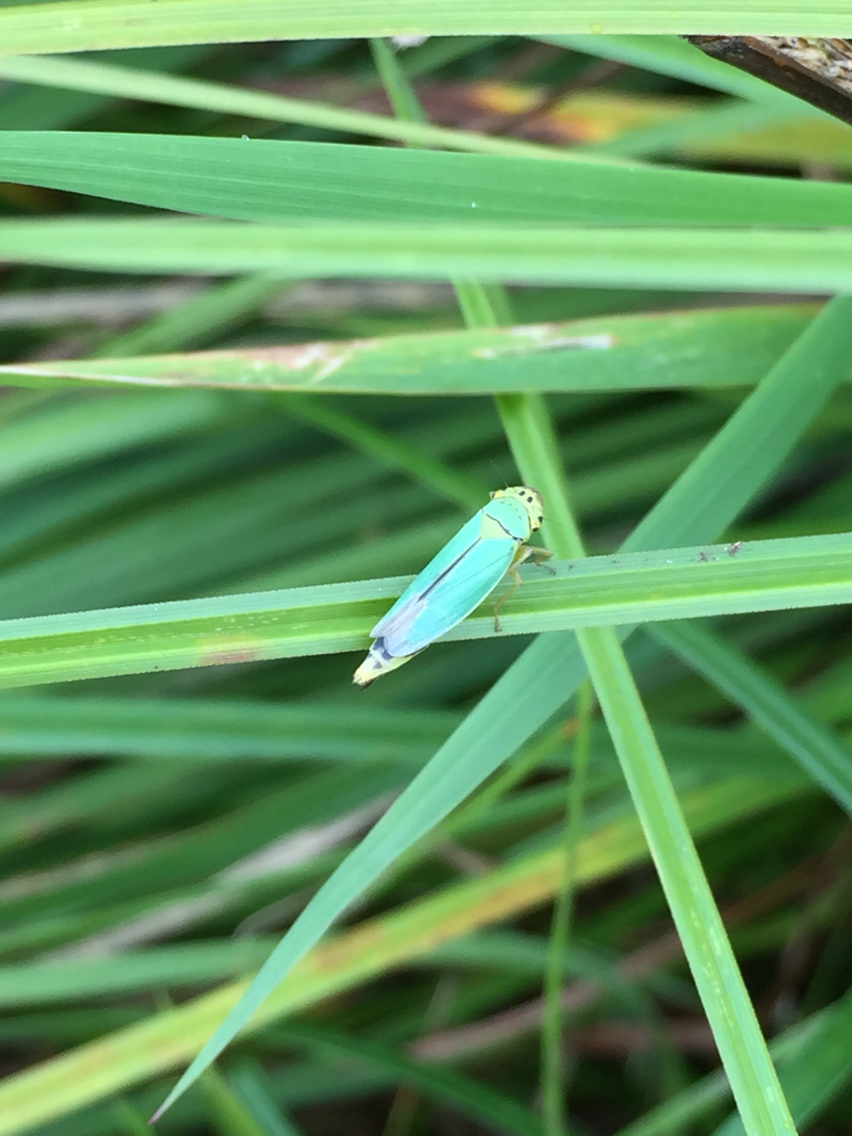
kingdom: Animalia
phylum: Arthropoda
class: Insecta
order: Hemiptera
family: Cicadellidae
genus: Cicadella
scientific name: Cicadella viridis
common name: Leafhopper
